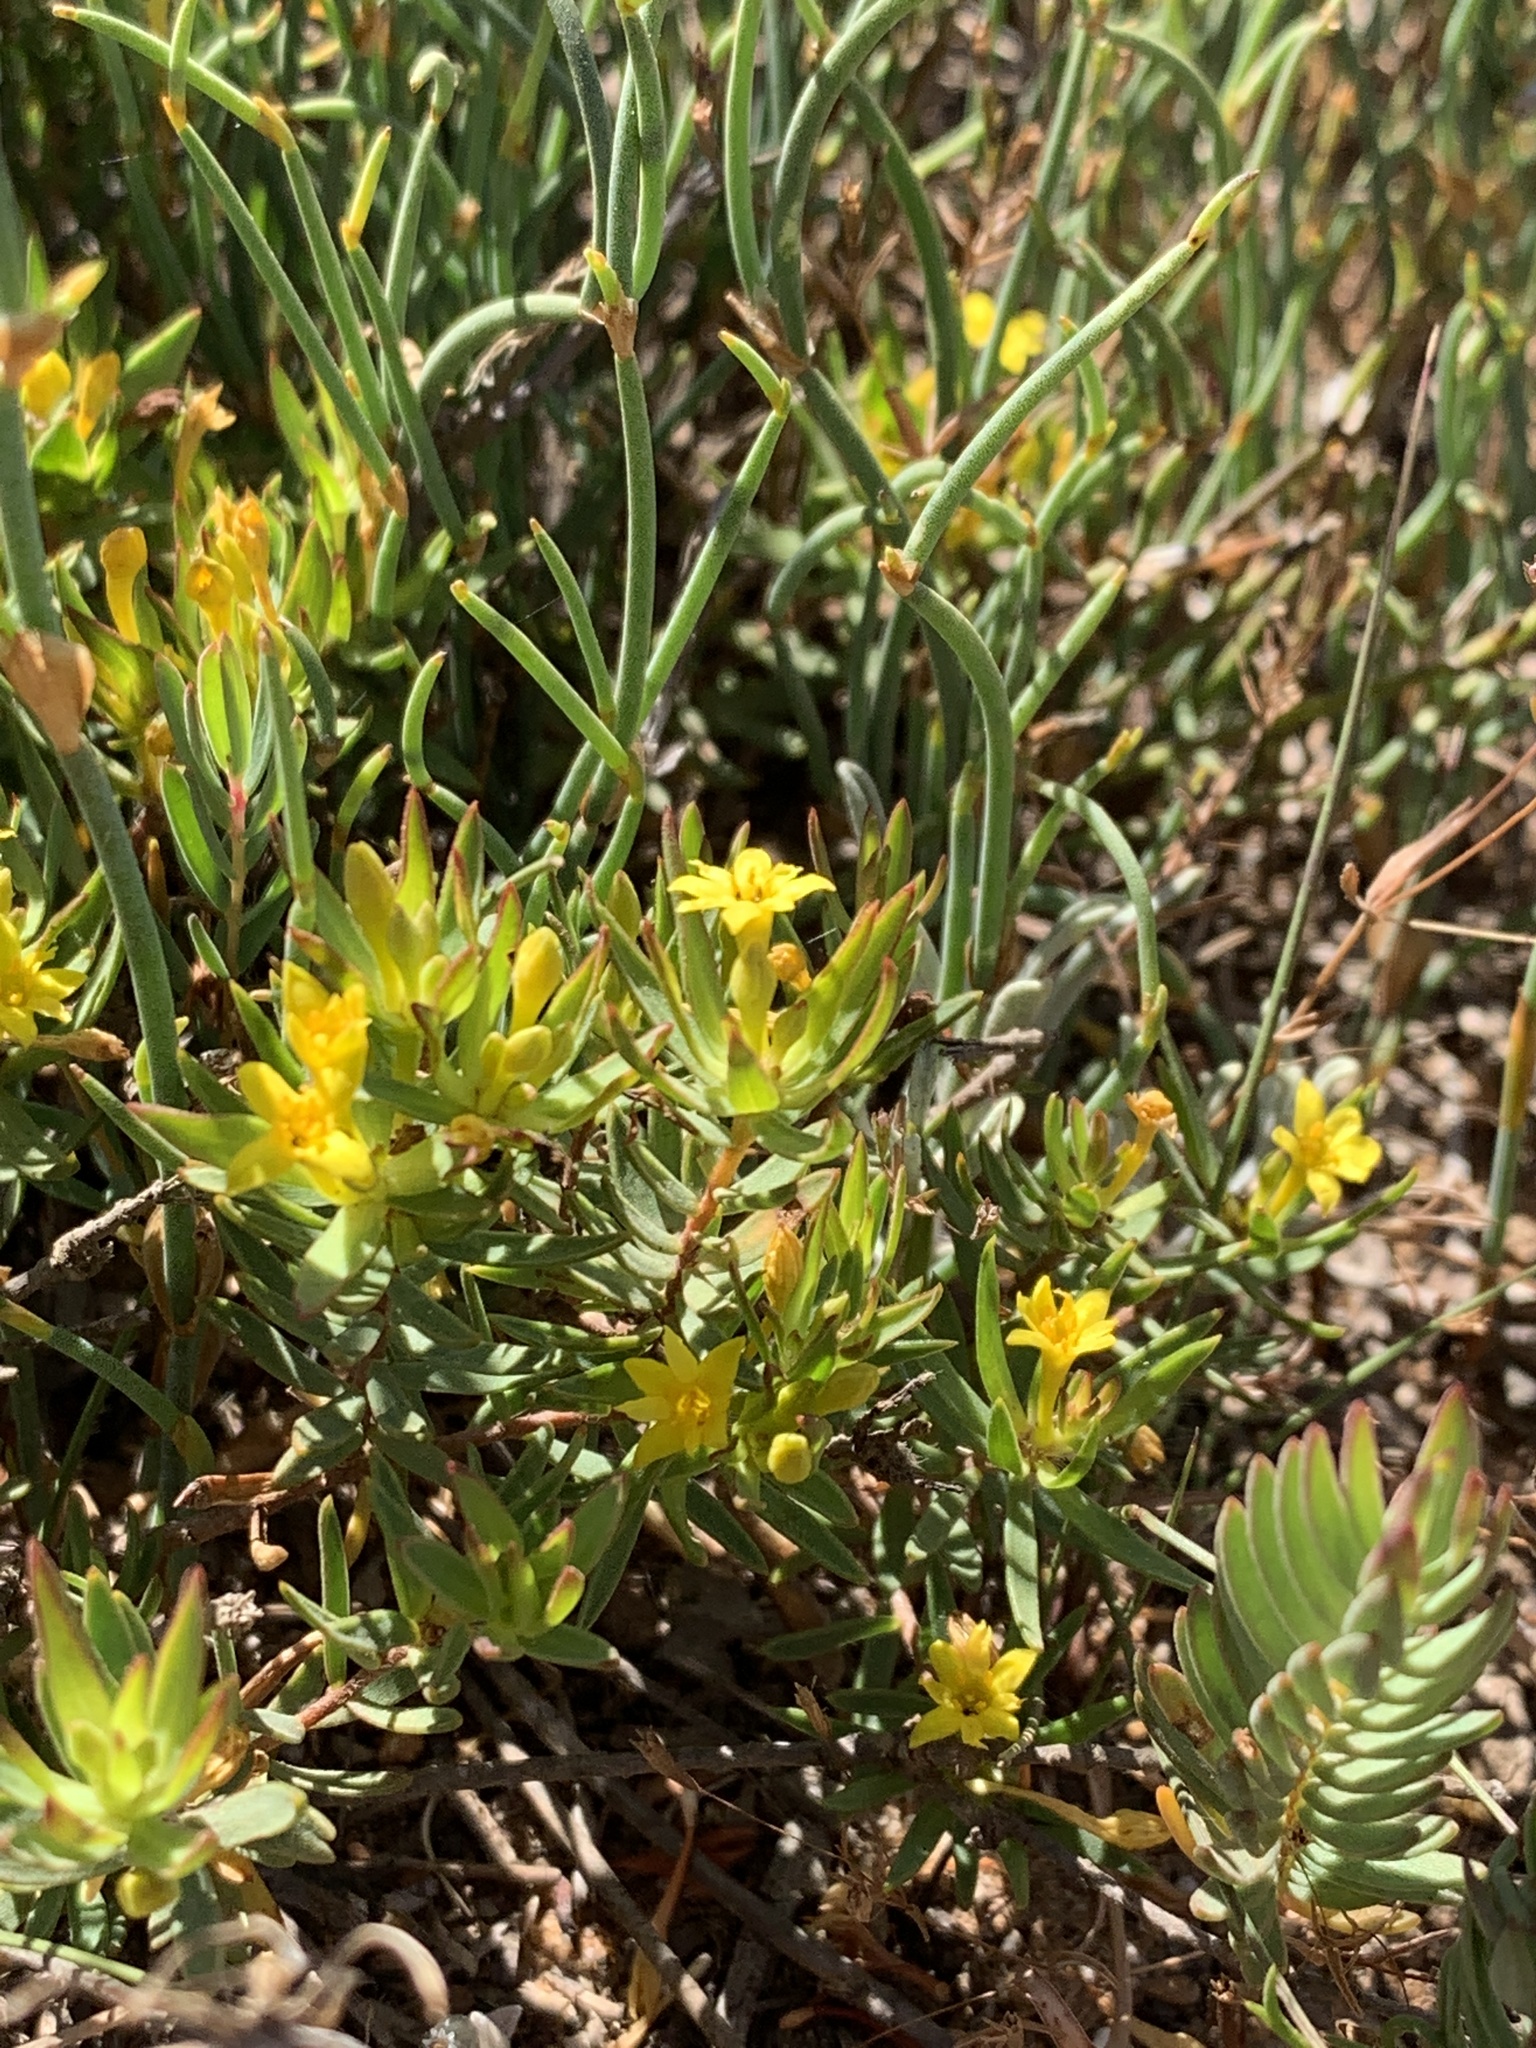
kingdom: Plantae
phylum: Tracheophyta
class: Magnoliopsida
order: Malvales
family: Thymelaeaceae
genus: Gnidia
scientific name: Gnidia juniperifolia
